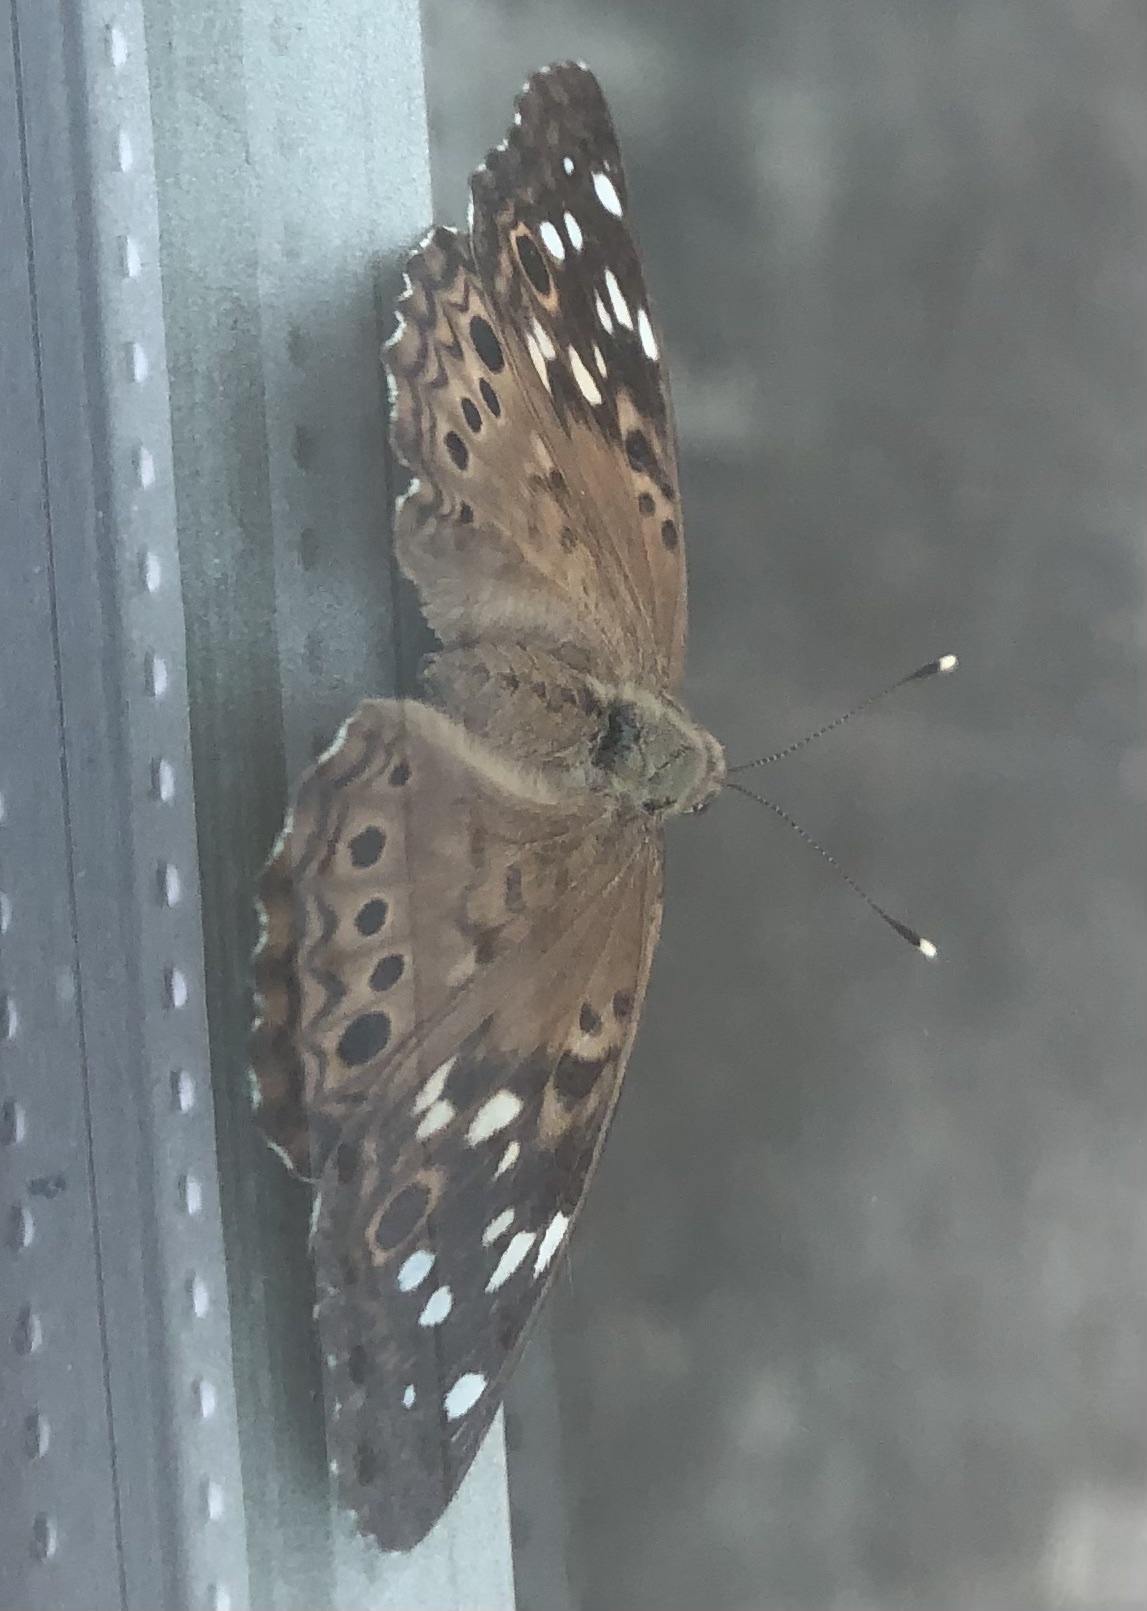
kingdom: Animalia
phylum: Arthropoda
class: Insecta
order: Lepidoptera
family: Nymphalidae
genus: Asterocampa
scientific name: Asterocampa celtis
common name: Hackberry emperor
